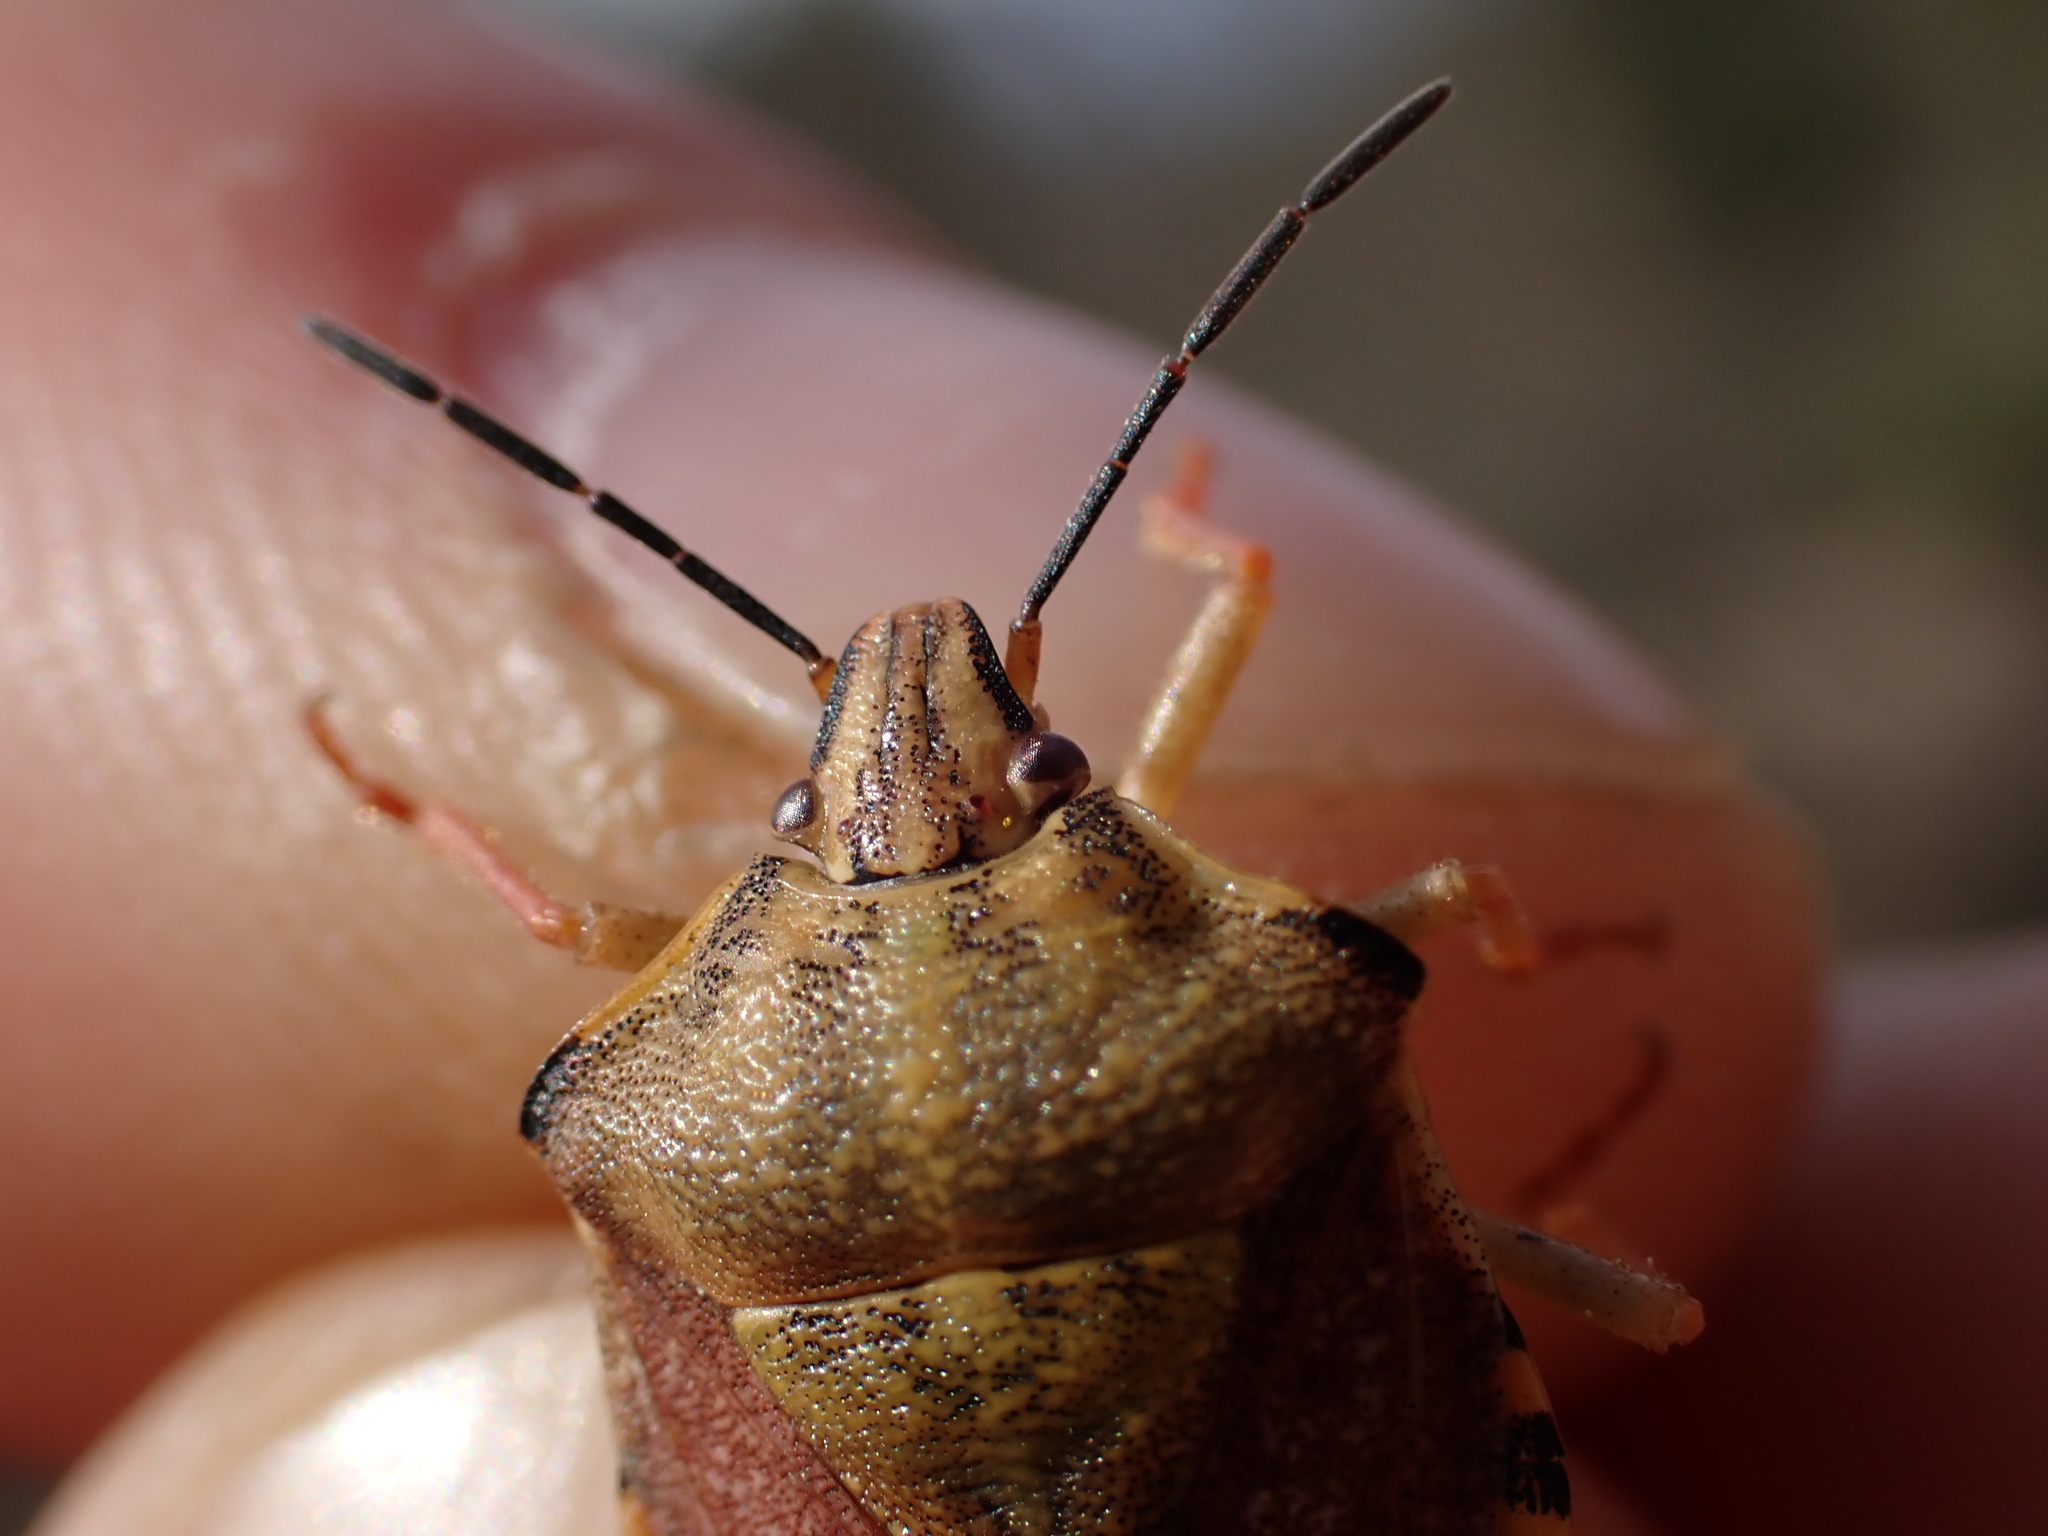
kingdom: Animalia
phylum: Arthropoda
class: Insecta
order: Hemiptera
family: Pentatomidae
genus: Carpocoris
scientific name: Carpocoris purpureipennis
